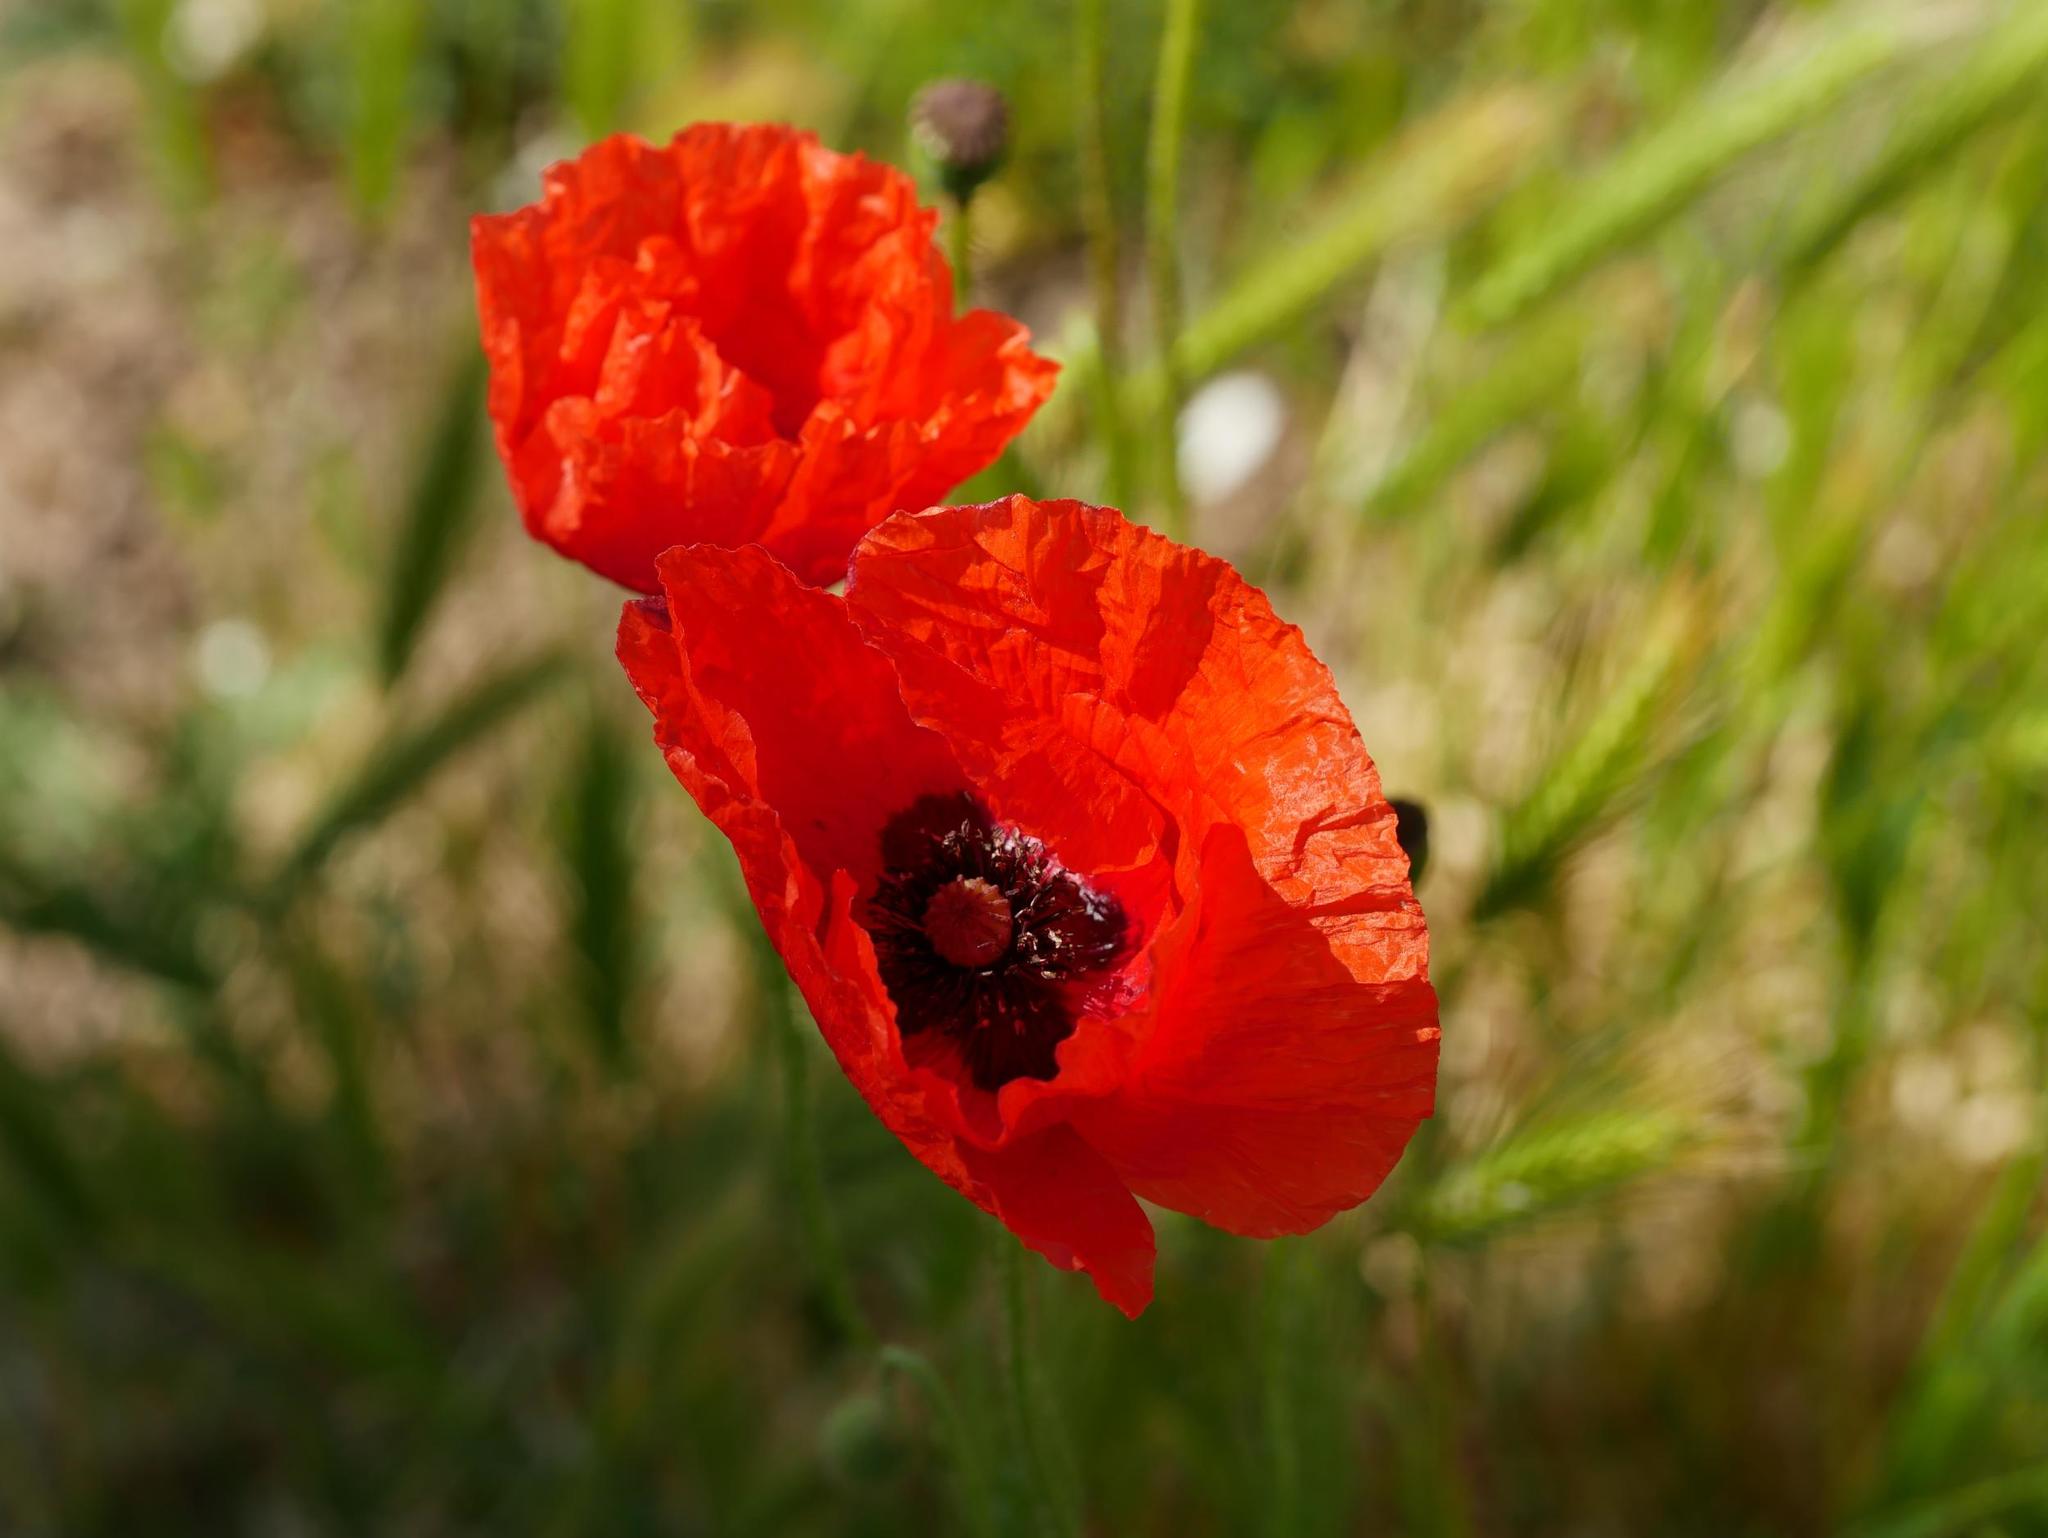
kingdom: Plantae
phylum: Tracheophyta
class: Magnoliopsida
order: Ranunculales
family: Papaveraceae
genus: Papaver
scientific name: Papaver rhoeas
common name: Corn poppy
